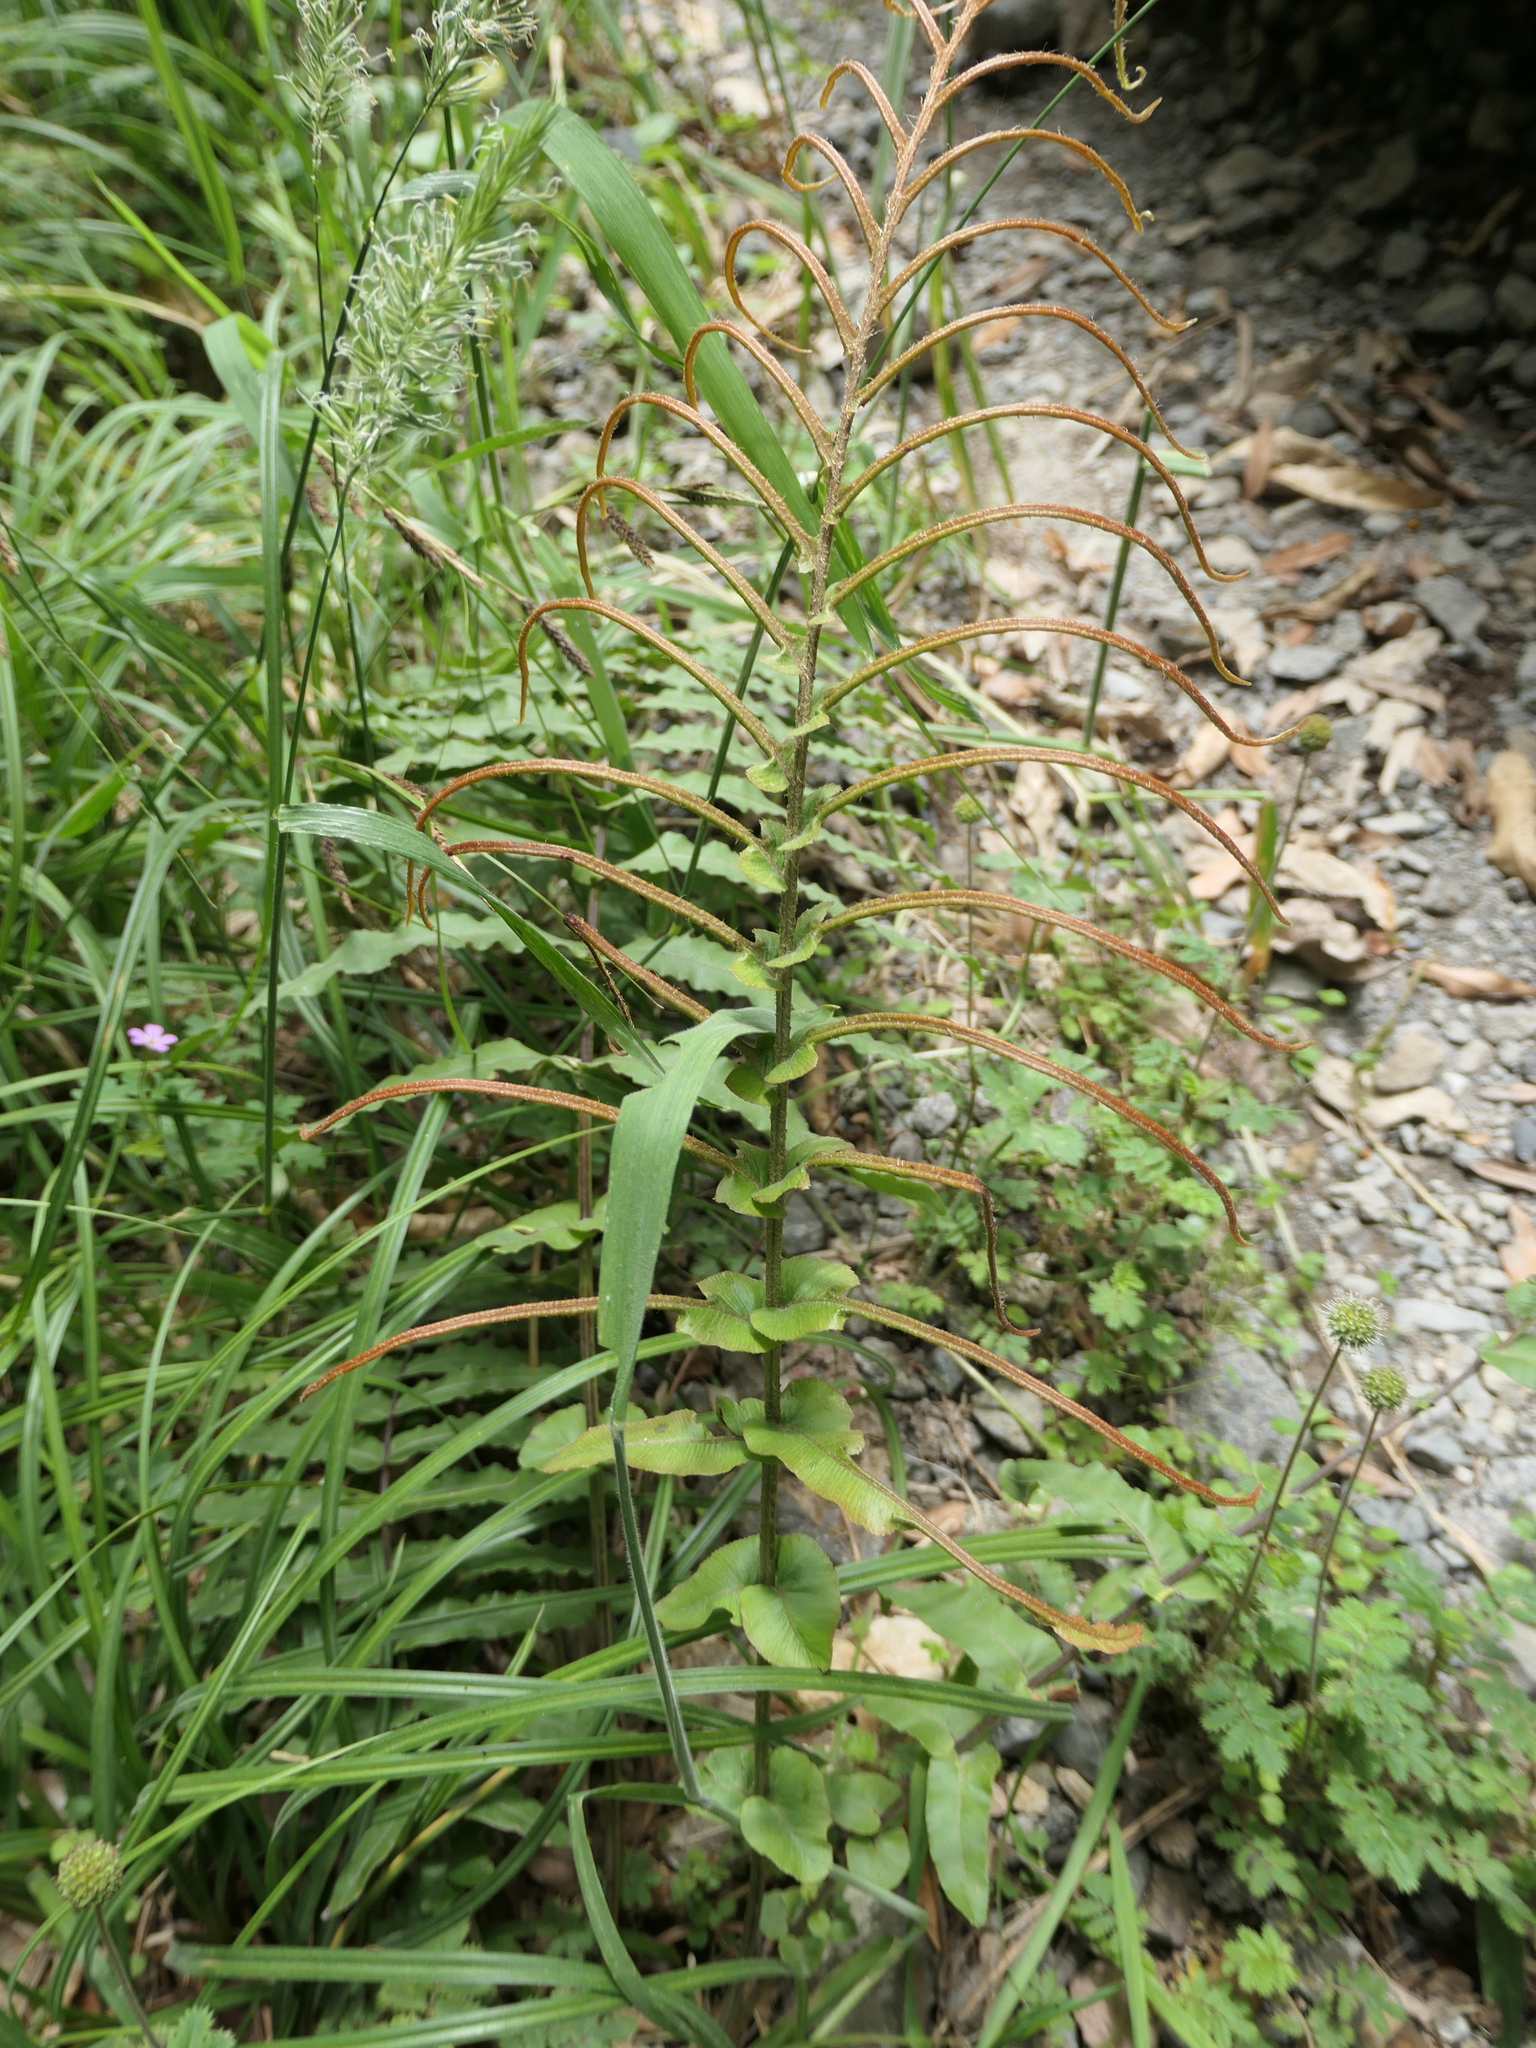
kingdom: Plantae
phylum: Tracheophyta
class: Polypodiopsida
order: Polypodiales
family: Blechnaceae
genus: Parablechnum
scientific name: Parablechnum novae-zelandiae
